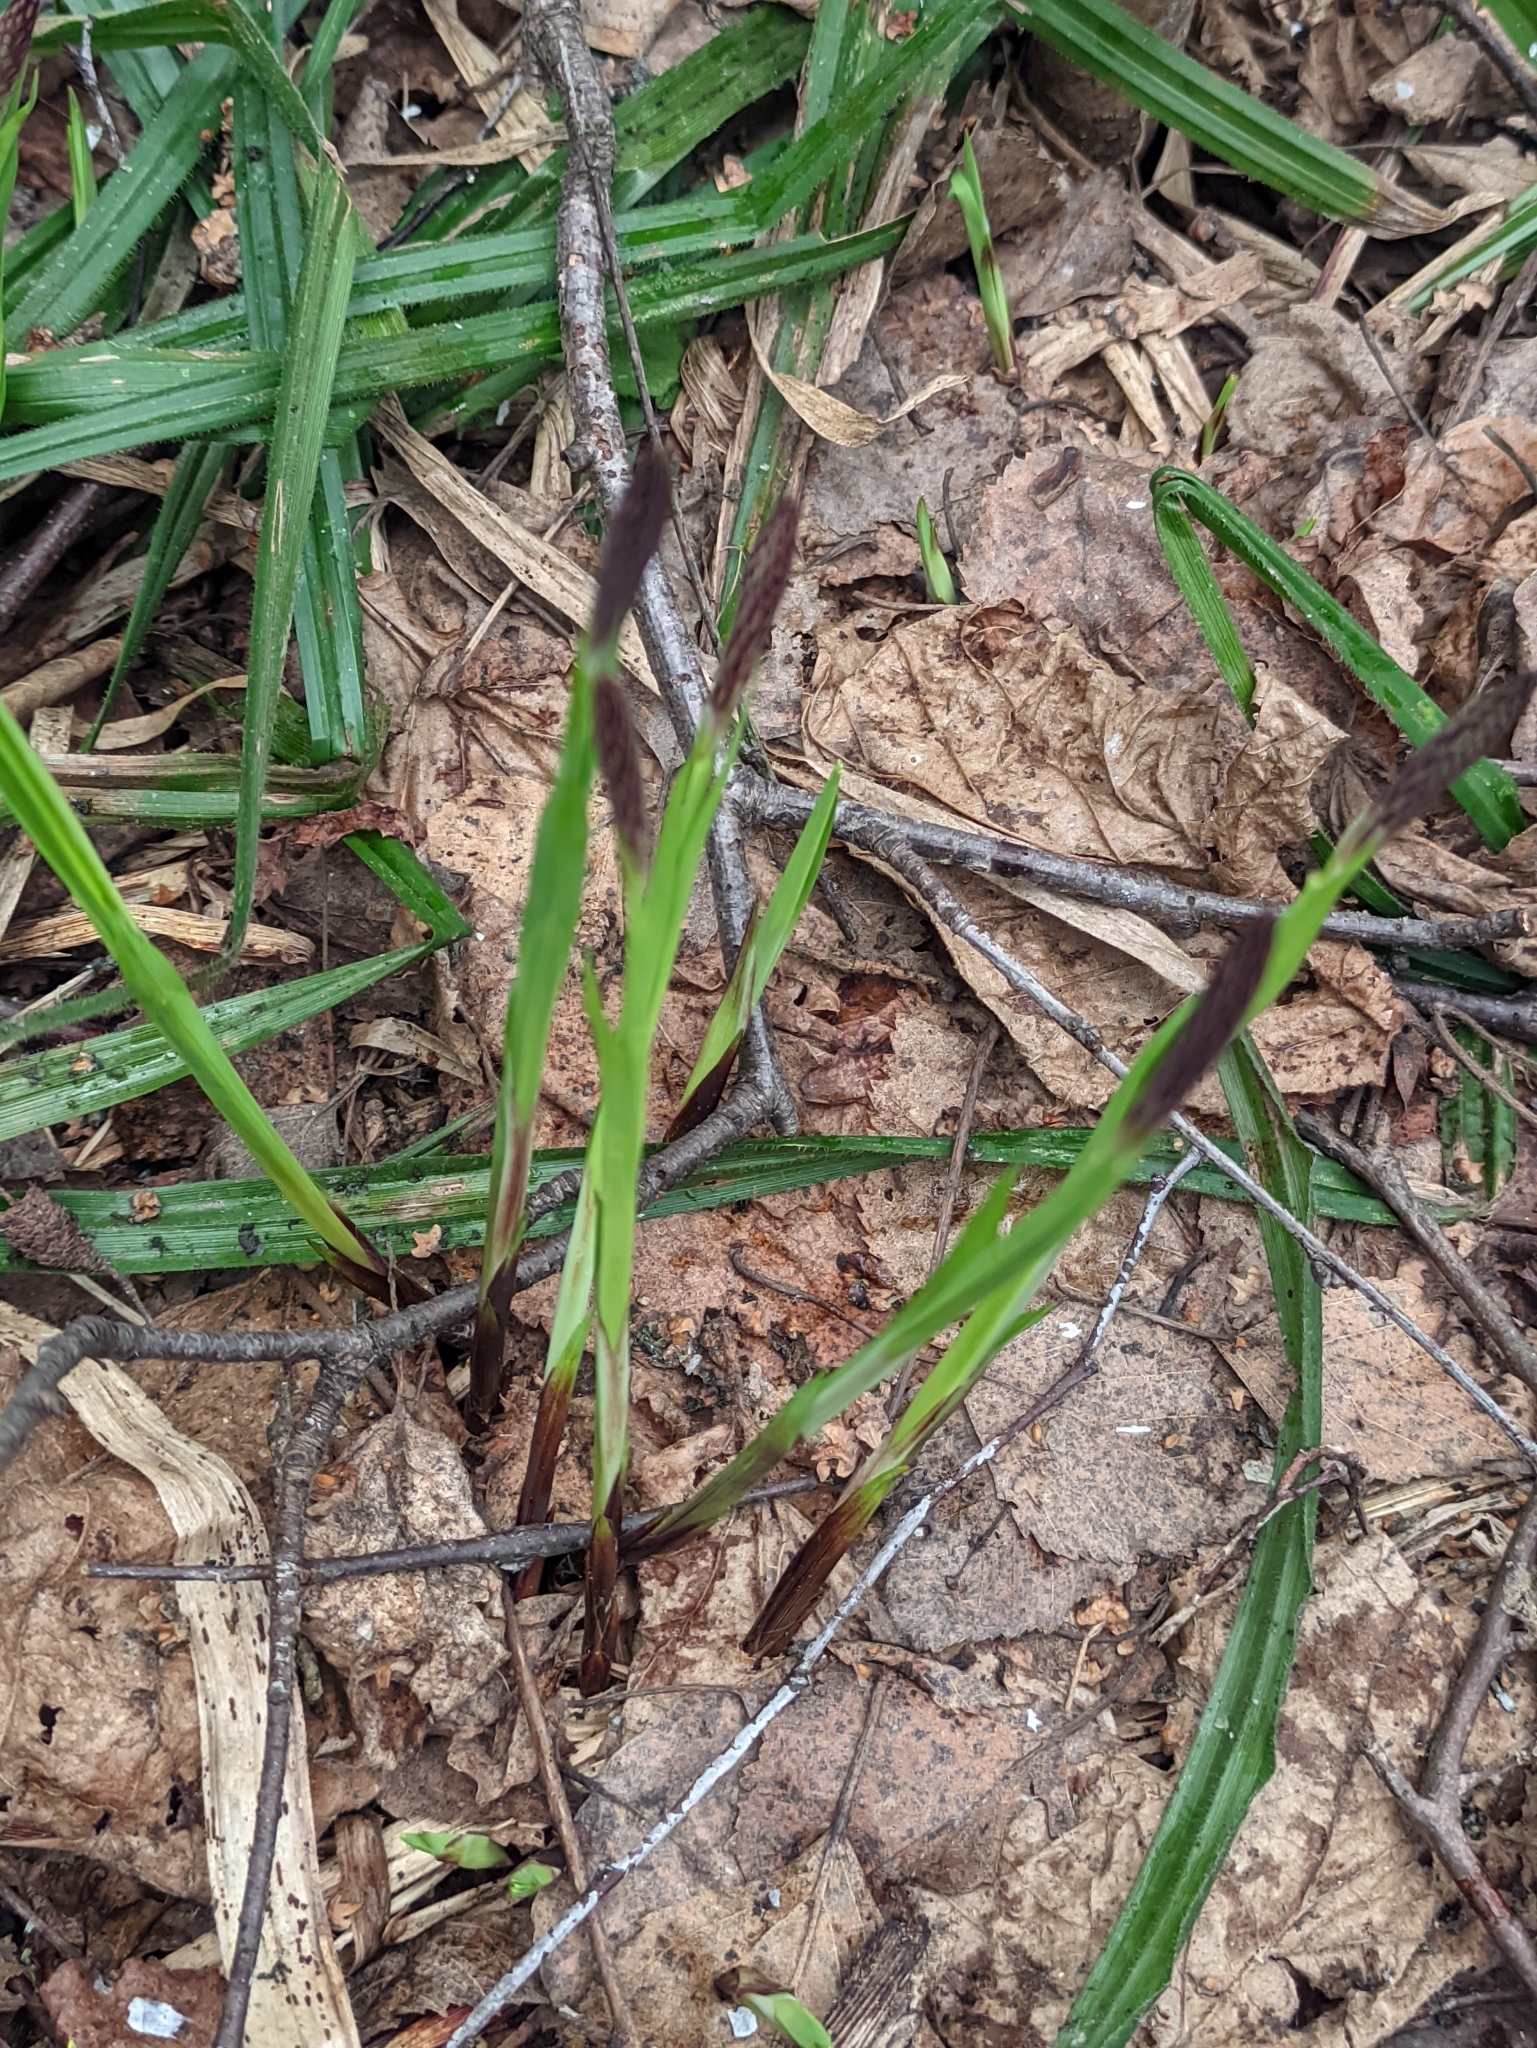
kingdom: Plantae
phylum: Tracheophyta
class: Liliopsida
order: Poales
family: Cyperaceae
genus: Carex
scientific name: Carex pilosa
